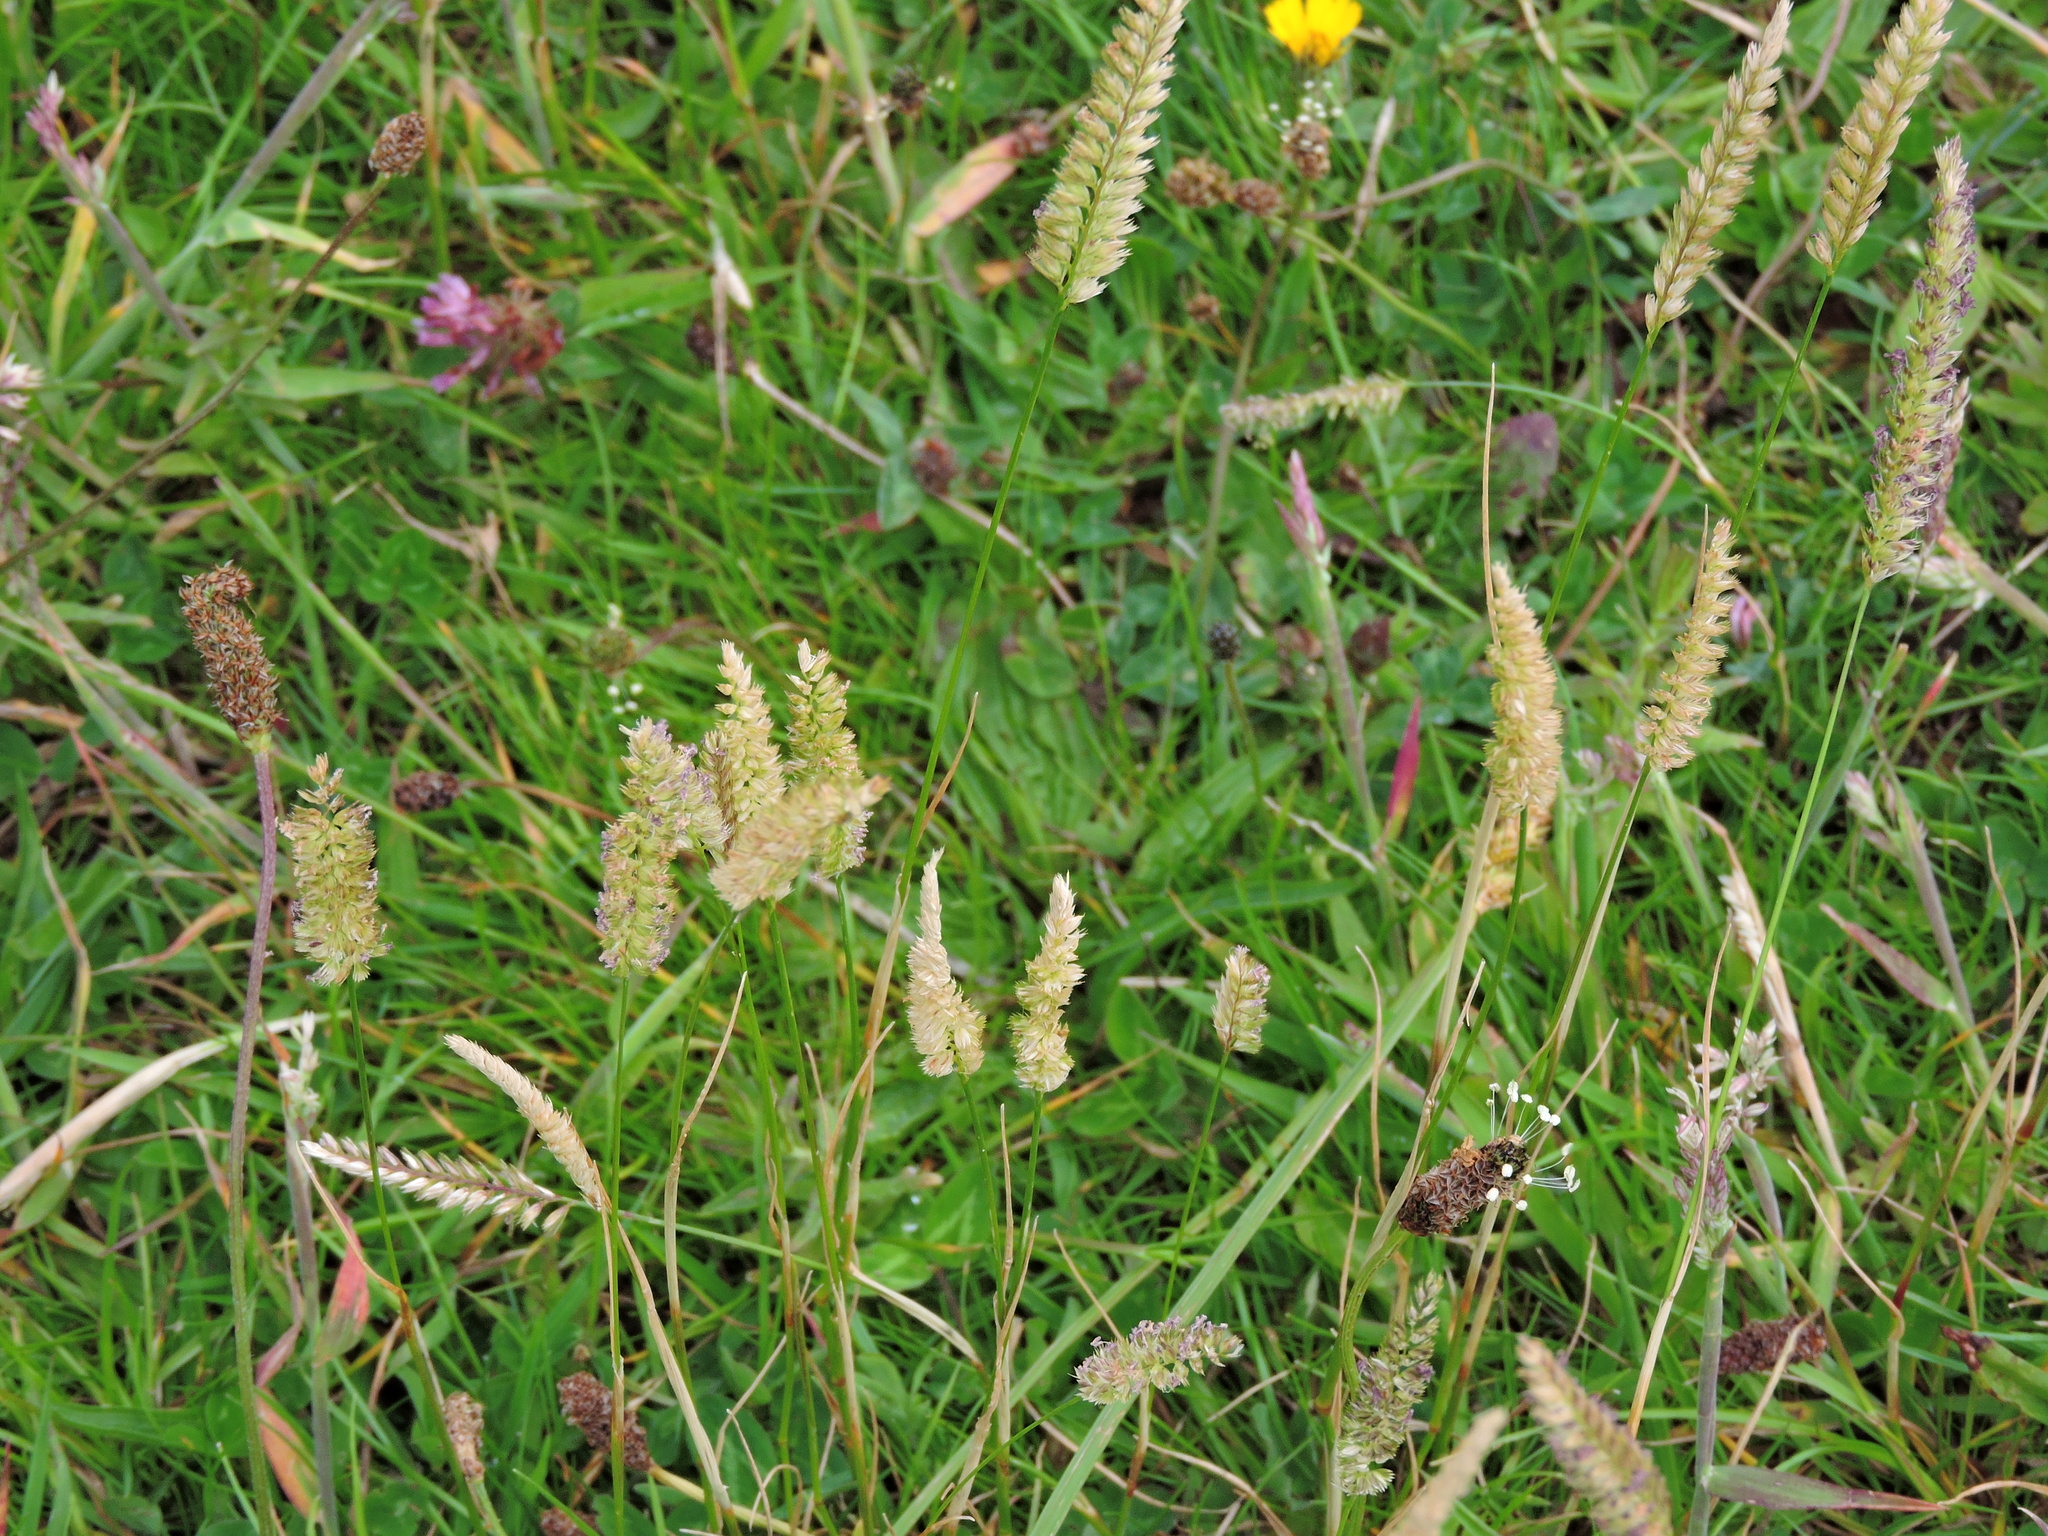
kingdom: Plantae
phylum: Tracheophyta
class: Liliopsida
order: Poales
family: Poaceae
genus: Cynosurus
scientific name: Cynosurus cristatus
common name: Crested dog's-tail
